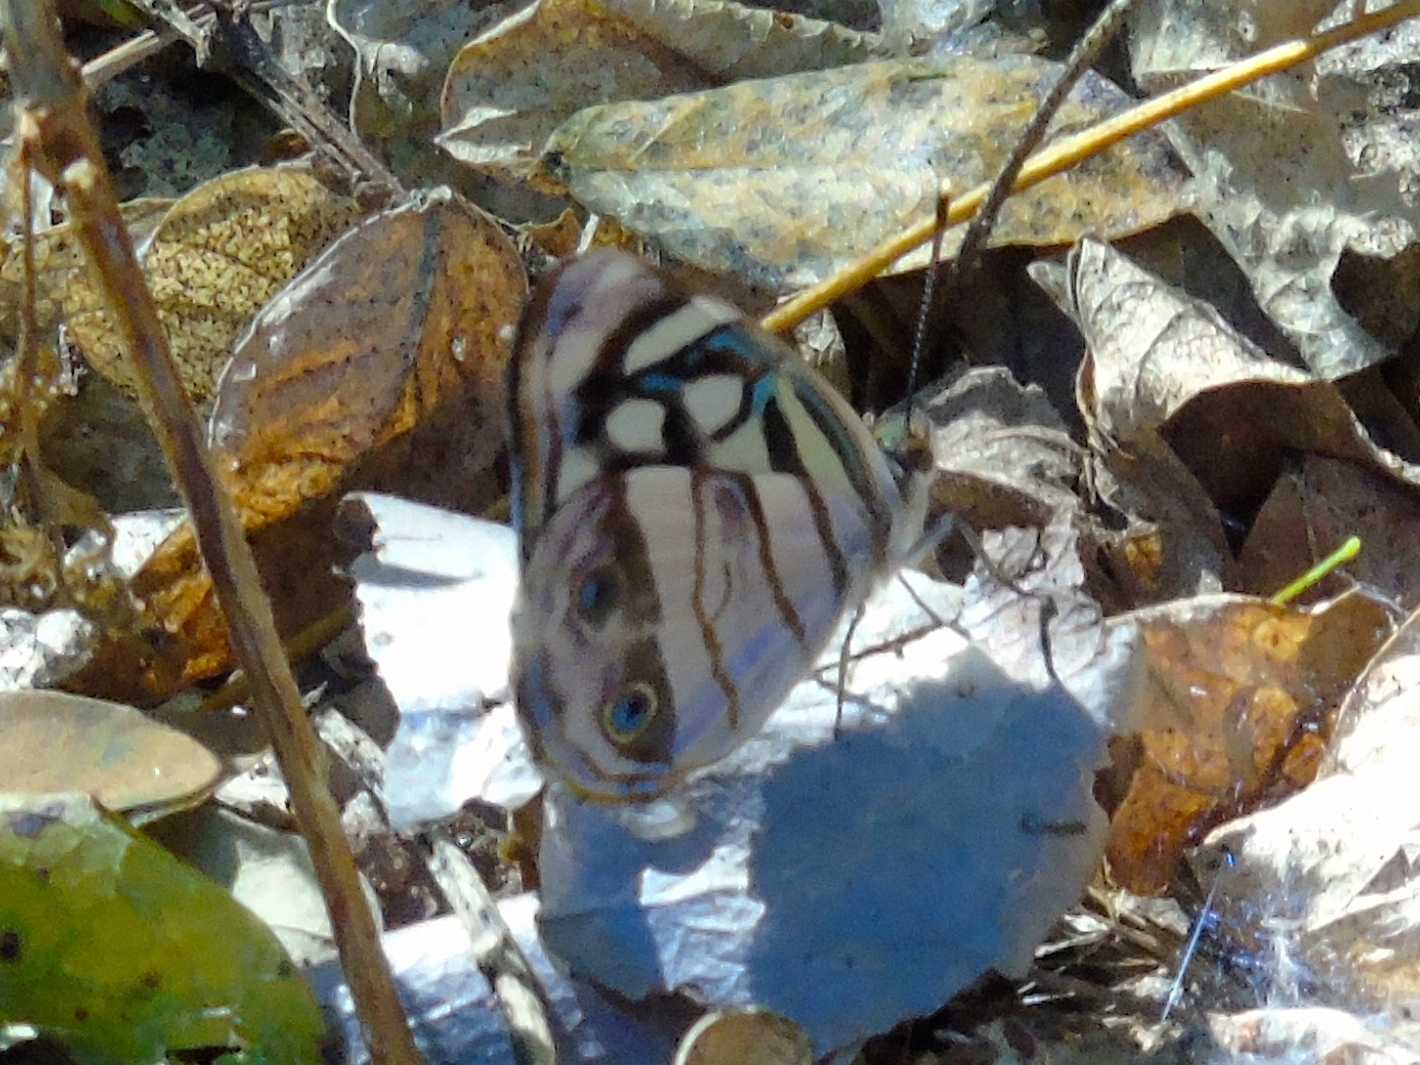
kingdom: Animalia
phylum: Arthropoda
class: Insecta
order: Lepidoptera
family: Nymphalidae
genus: Dynamine
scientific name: Dynamine mylitta
